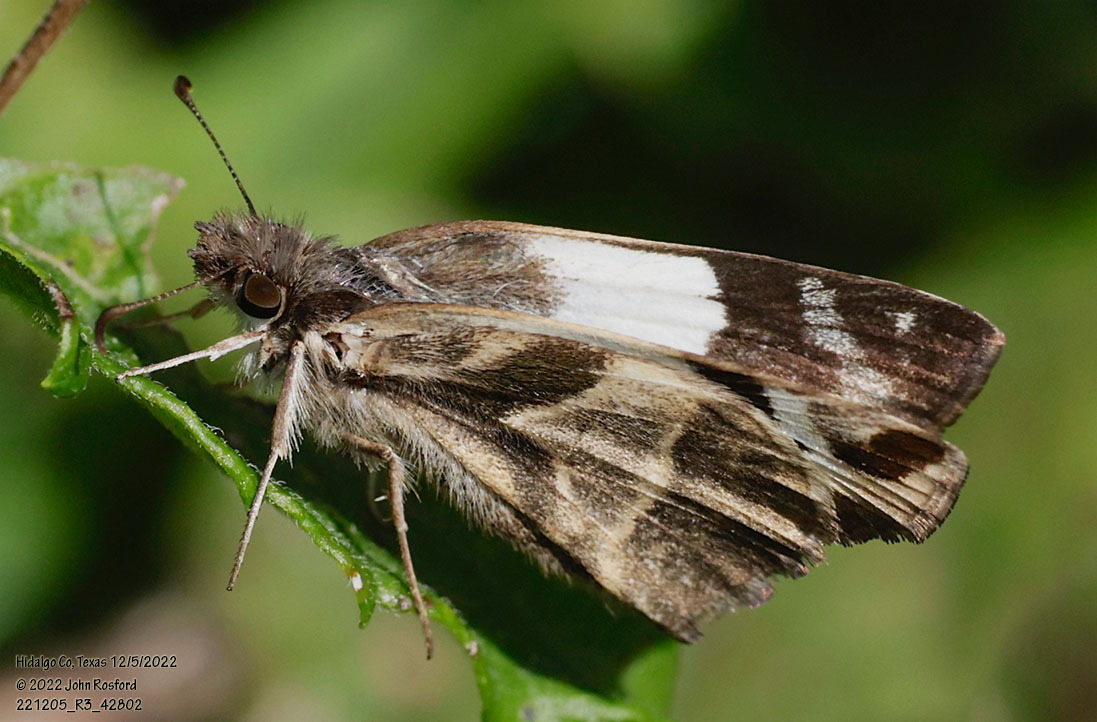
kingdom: Animalia
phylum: Arthropoda
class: Insecta
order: Lepidoptera
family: Hesperiidae
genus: Heliopetes
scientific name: Heliopetes laviana
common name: Laviana white-skipper
